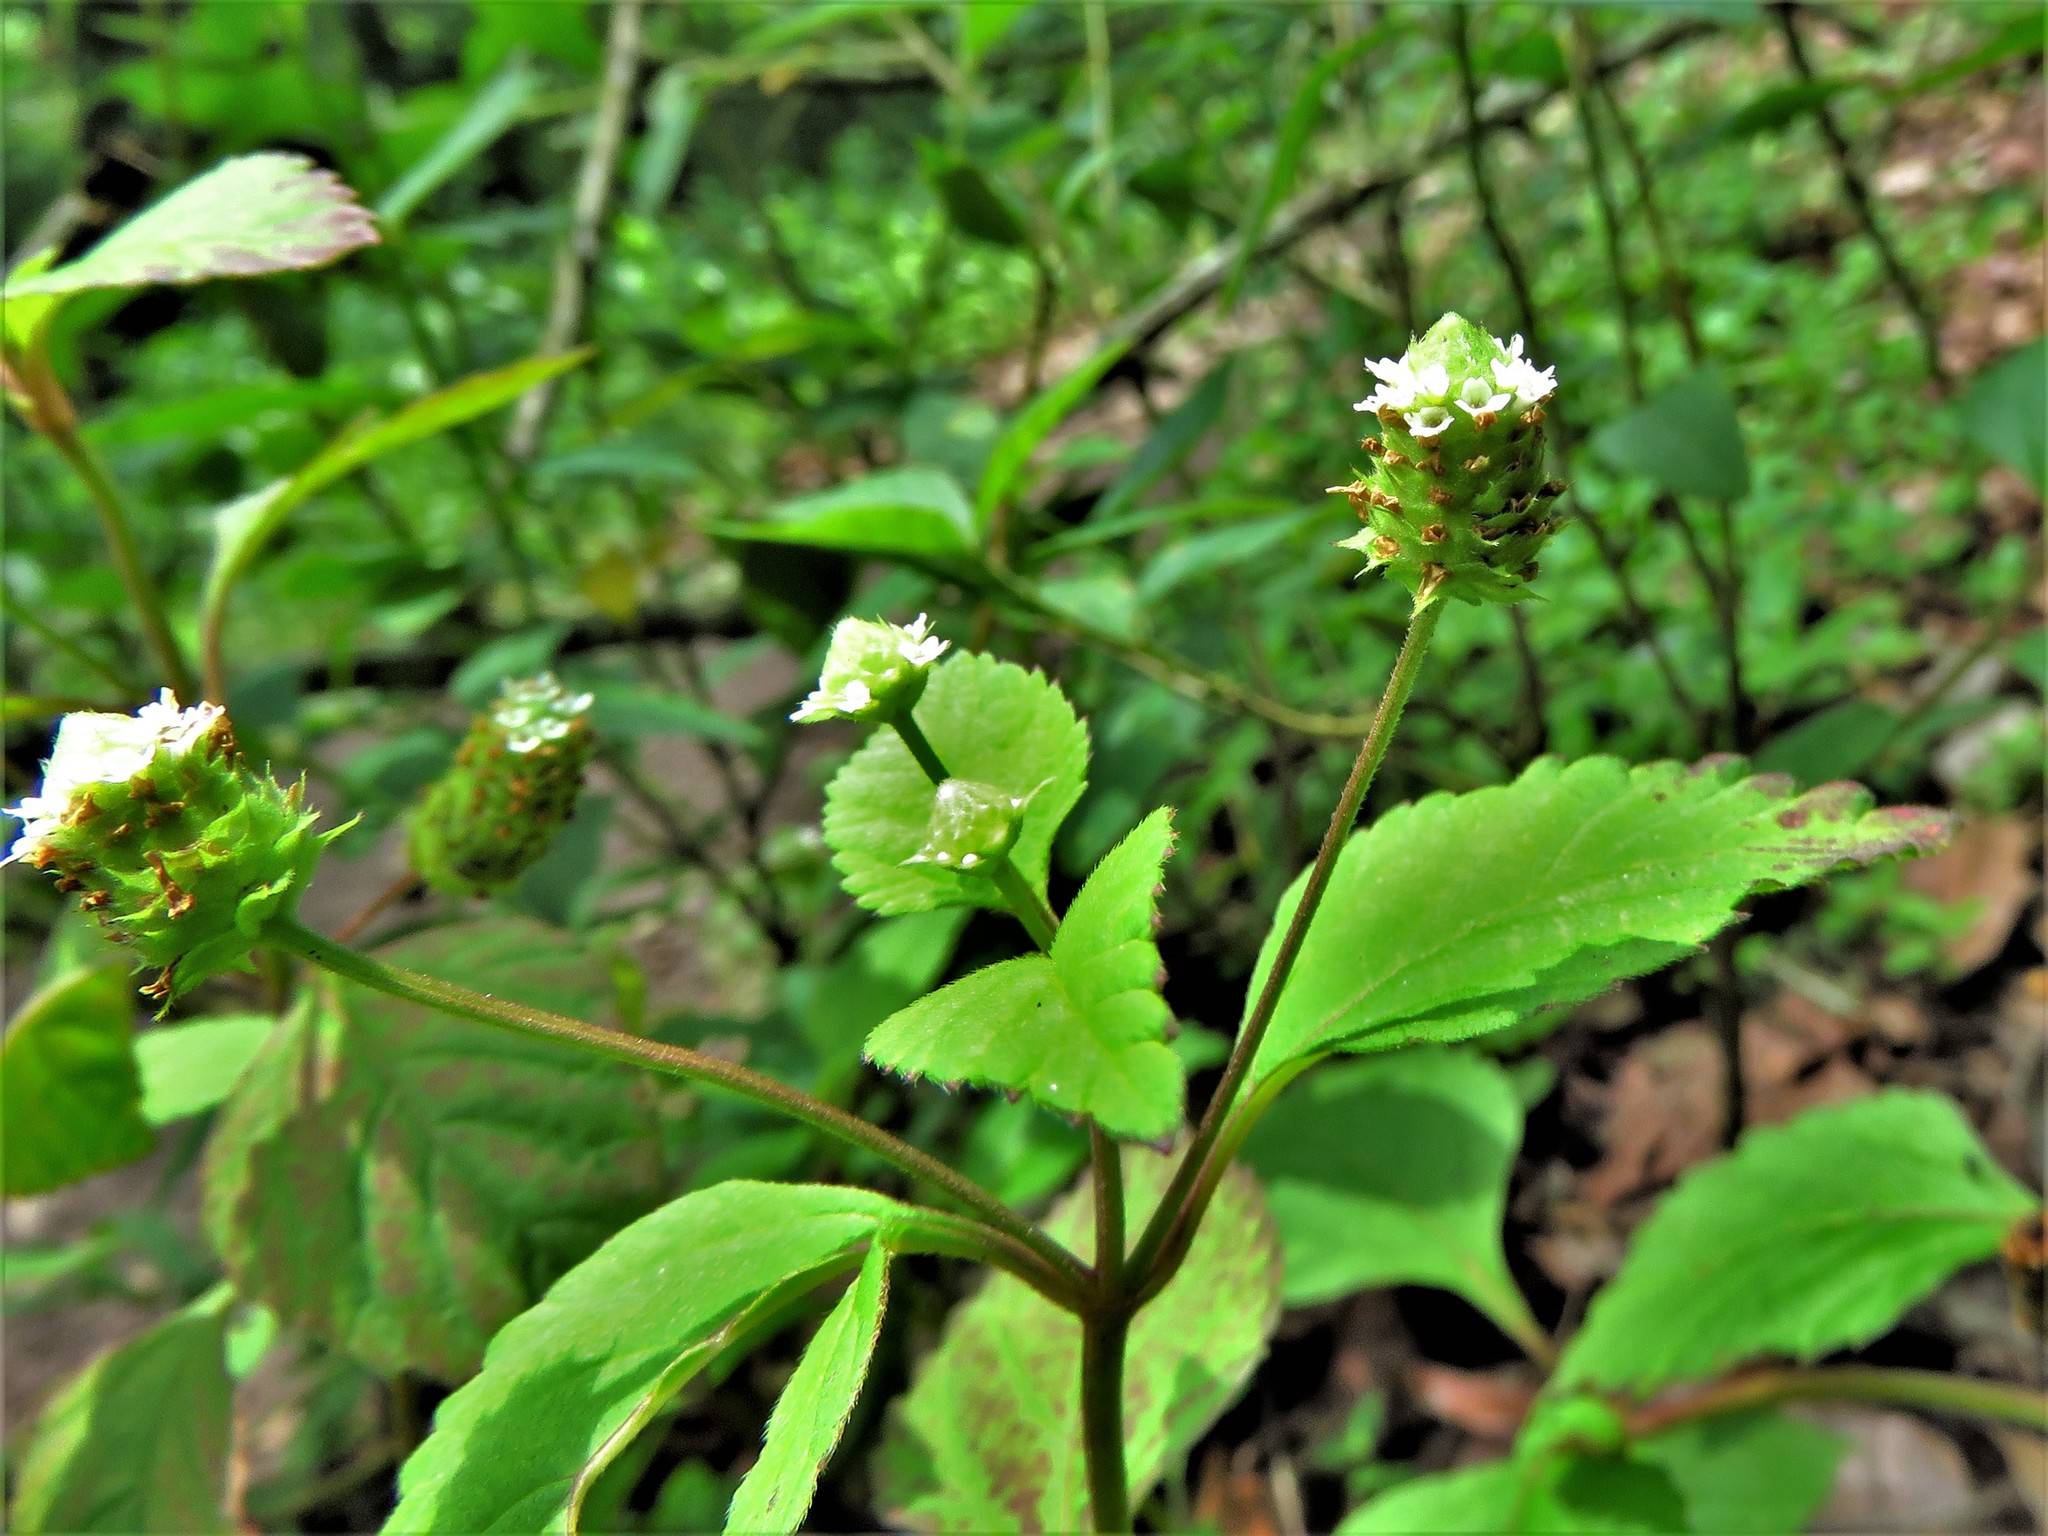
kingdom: Plantae
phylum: Tracheophyta
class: Magnoliopsida
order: Lamiales
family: Verbenaceae
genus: Lippia
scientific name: Lippia dulcis
